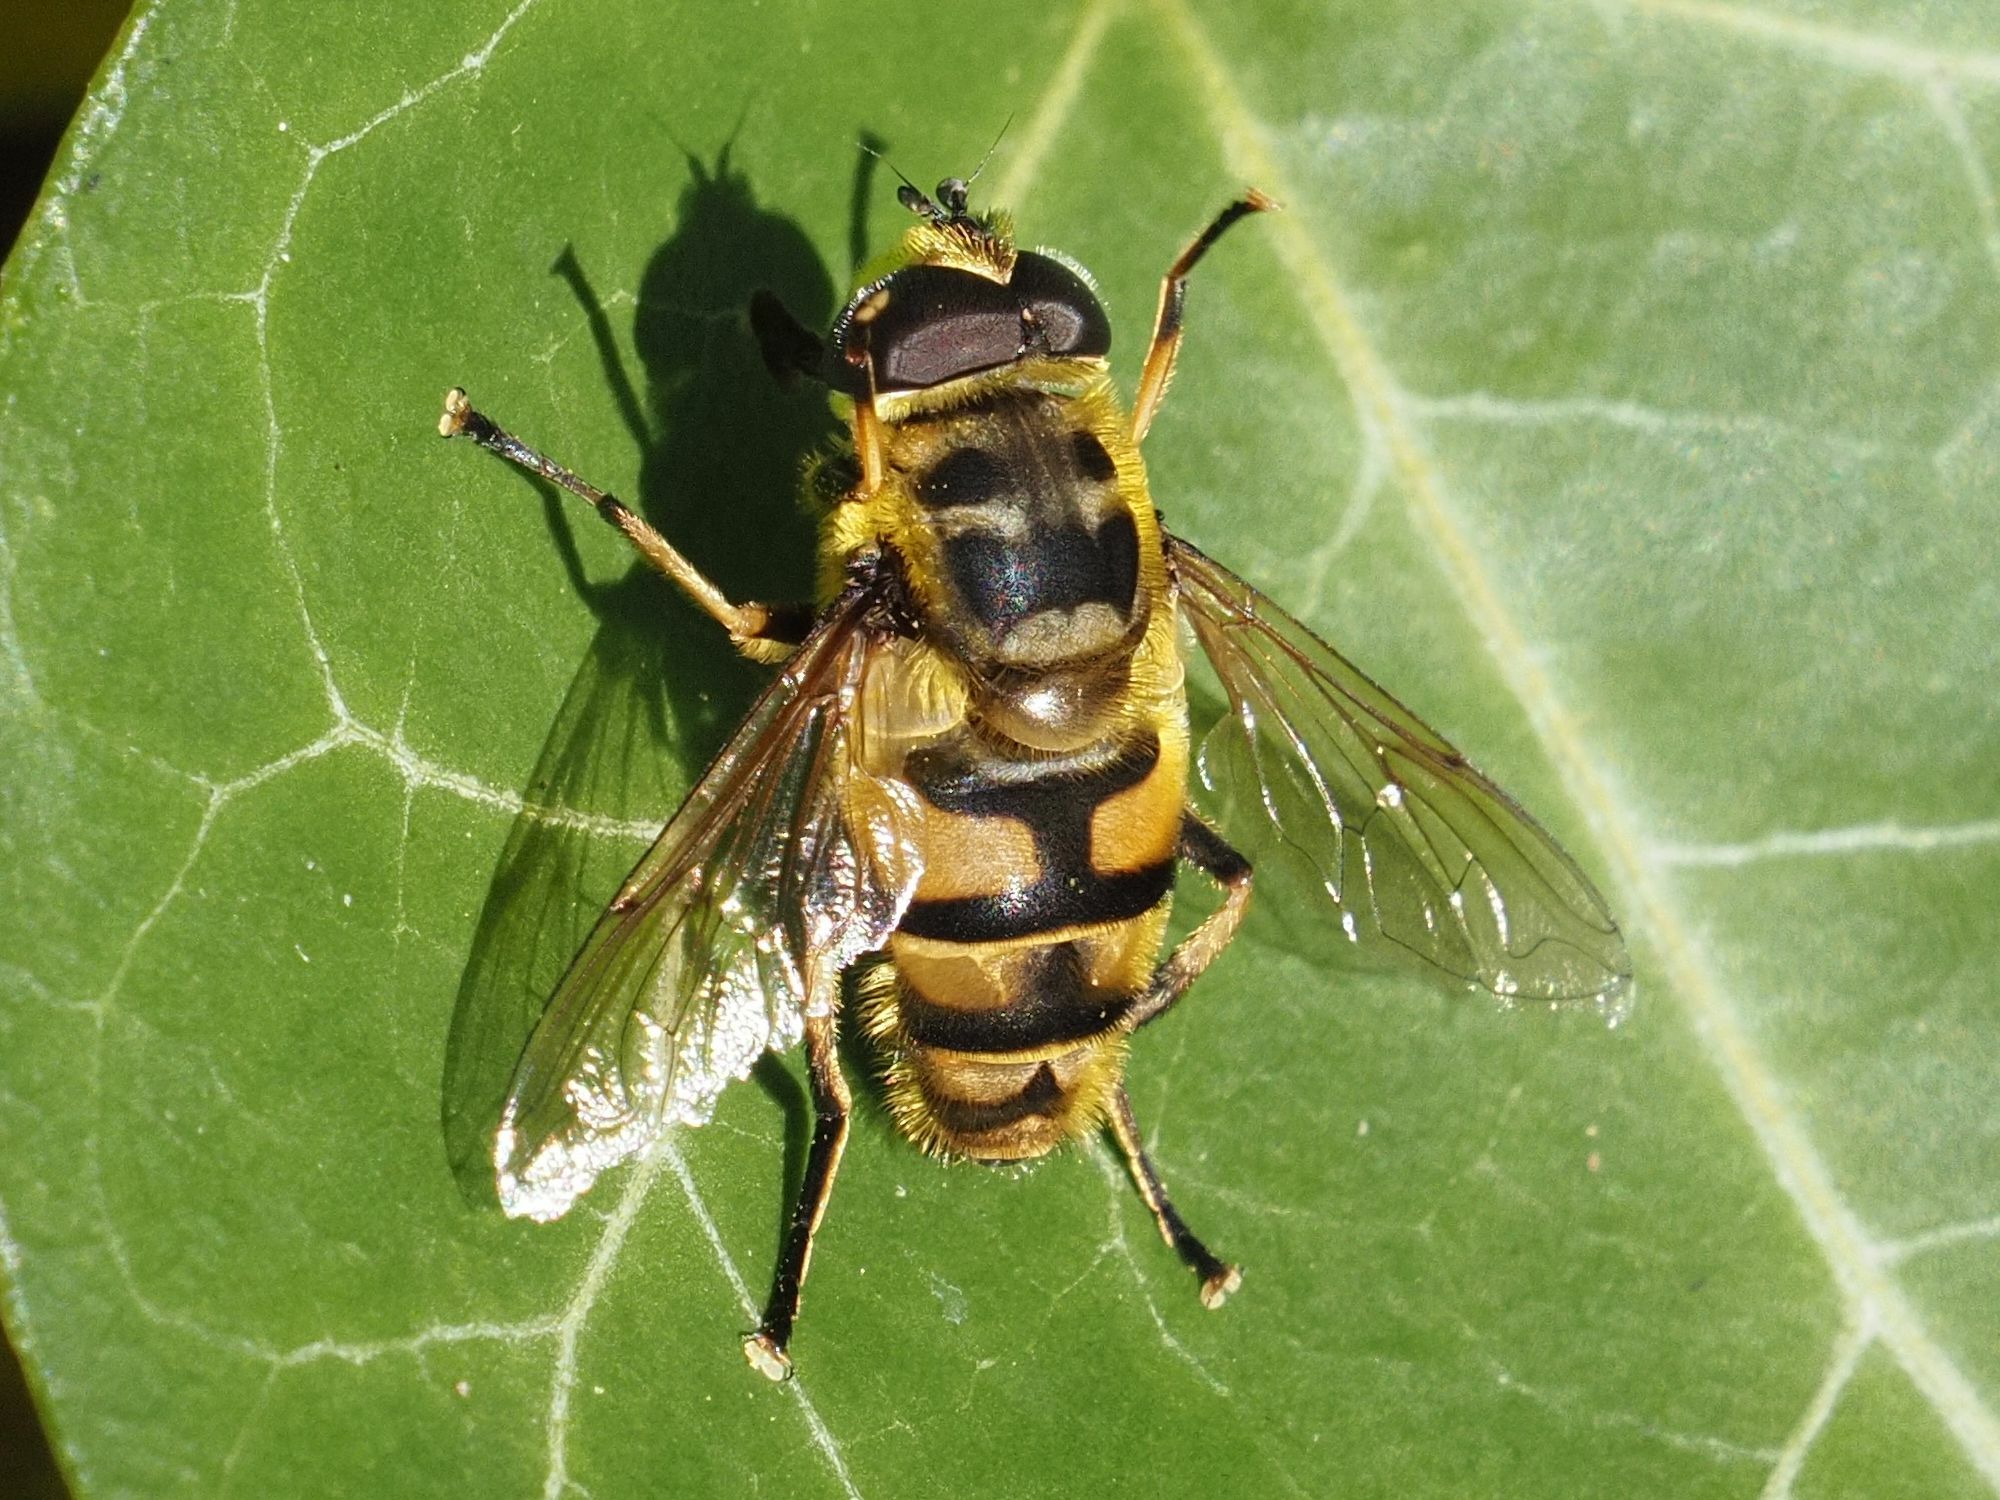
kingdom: Animalia
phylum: Arthropoda
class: Insecta
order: Diptera
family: Syrphidae
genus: Myathropa
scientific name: Myathropa florea
